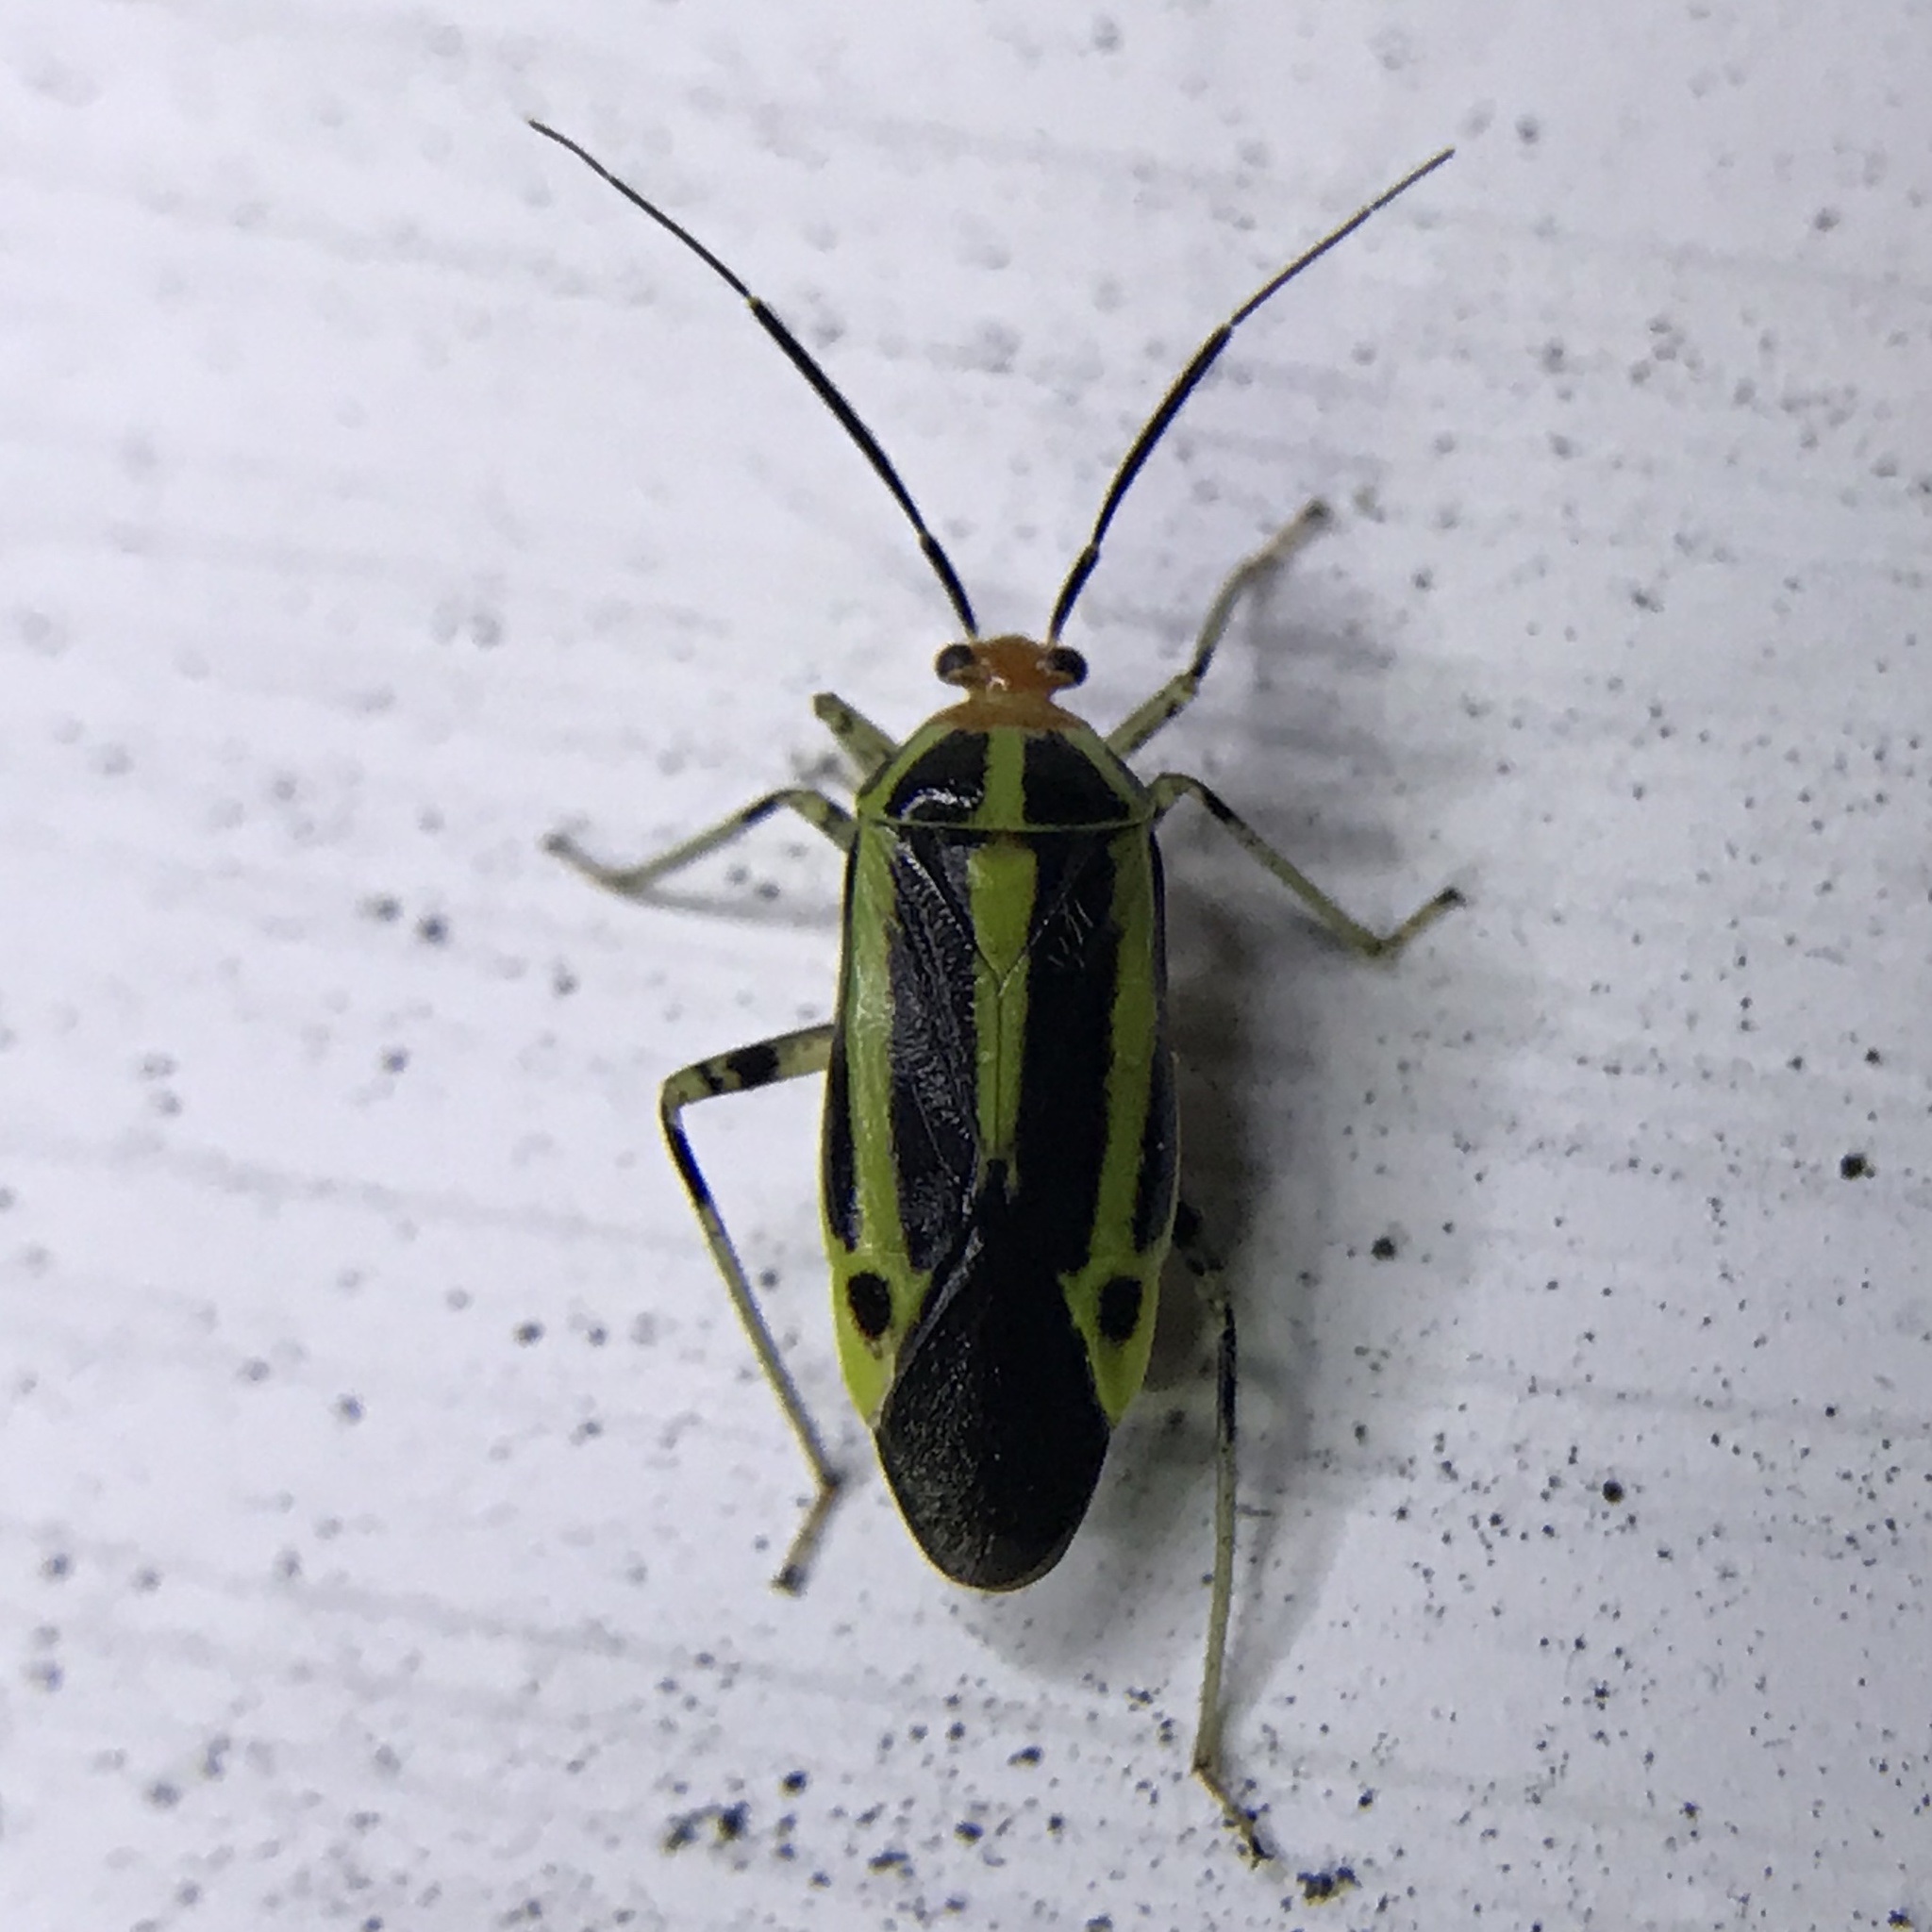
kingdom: Animalia
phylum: Arthropoda
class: Insecta
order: Hemiptera
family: Miridae
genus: Poecilocapsus
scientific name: Poecilocapsus lineatus
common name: Four-lined plant bug
